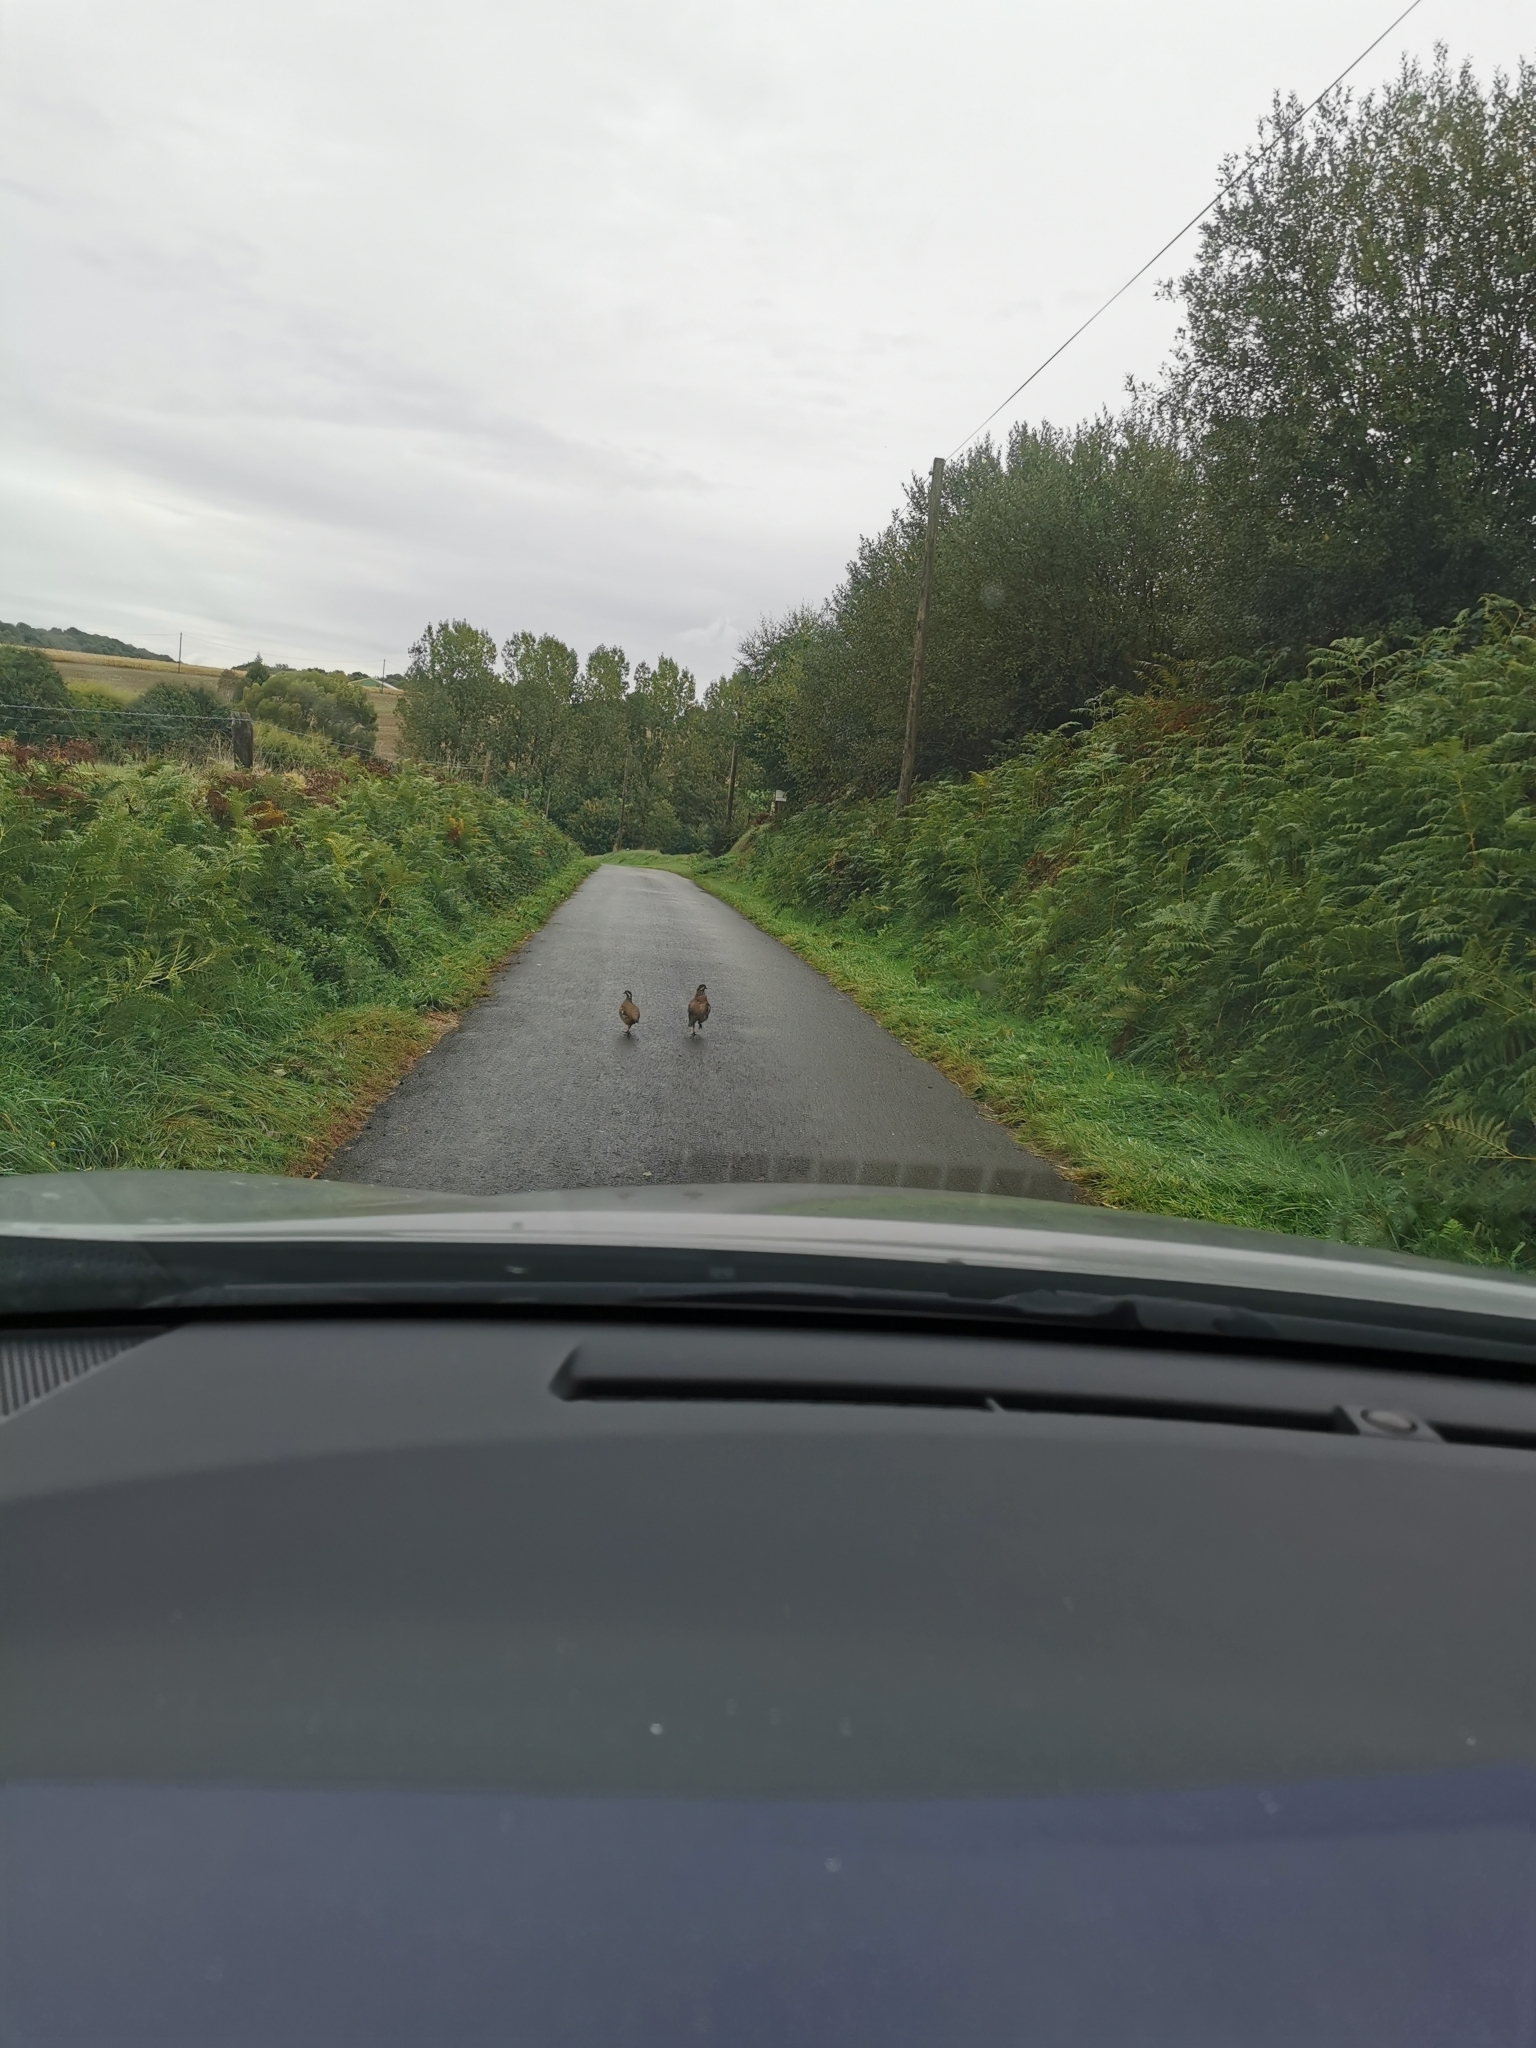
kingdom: Animalia
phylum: Chordata
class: Aves
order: Galliformes
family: Phasianidae
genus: Alectoris
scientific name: Alectoris rufa
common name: Red-legged partridge
